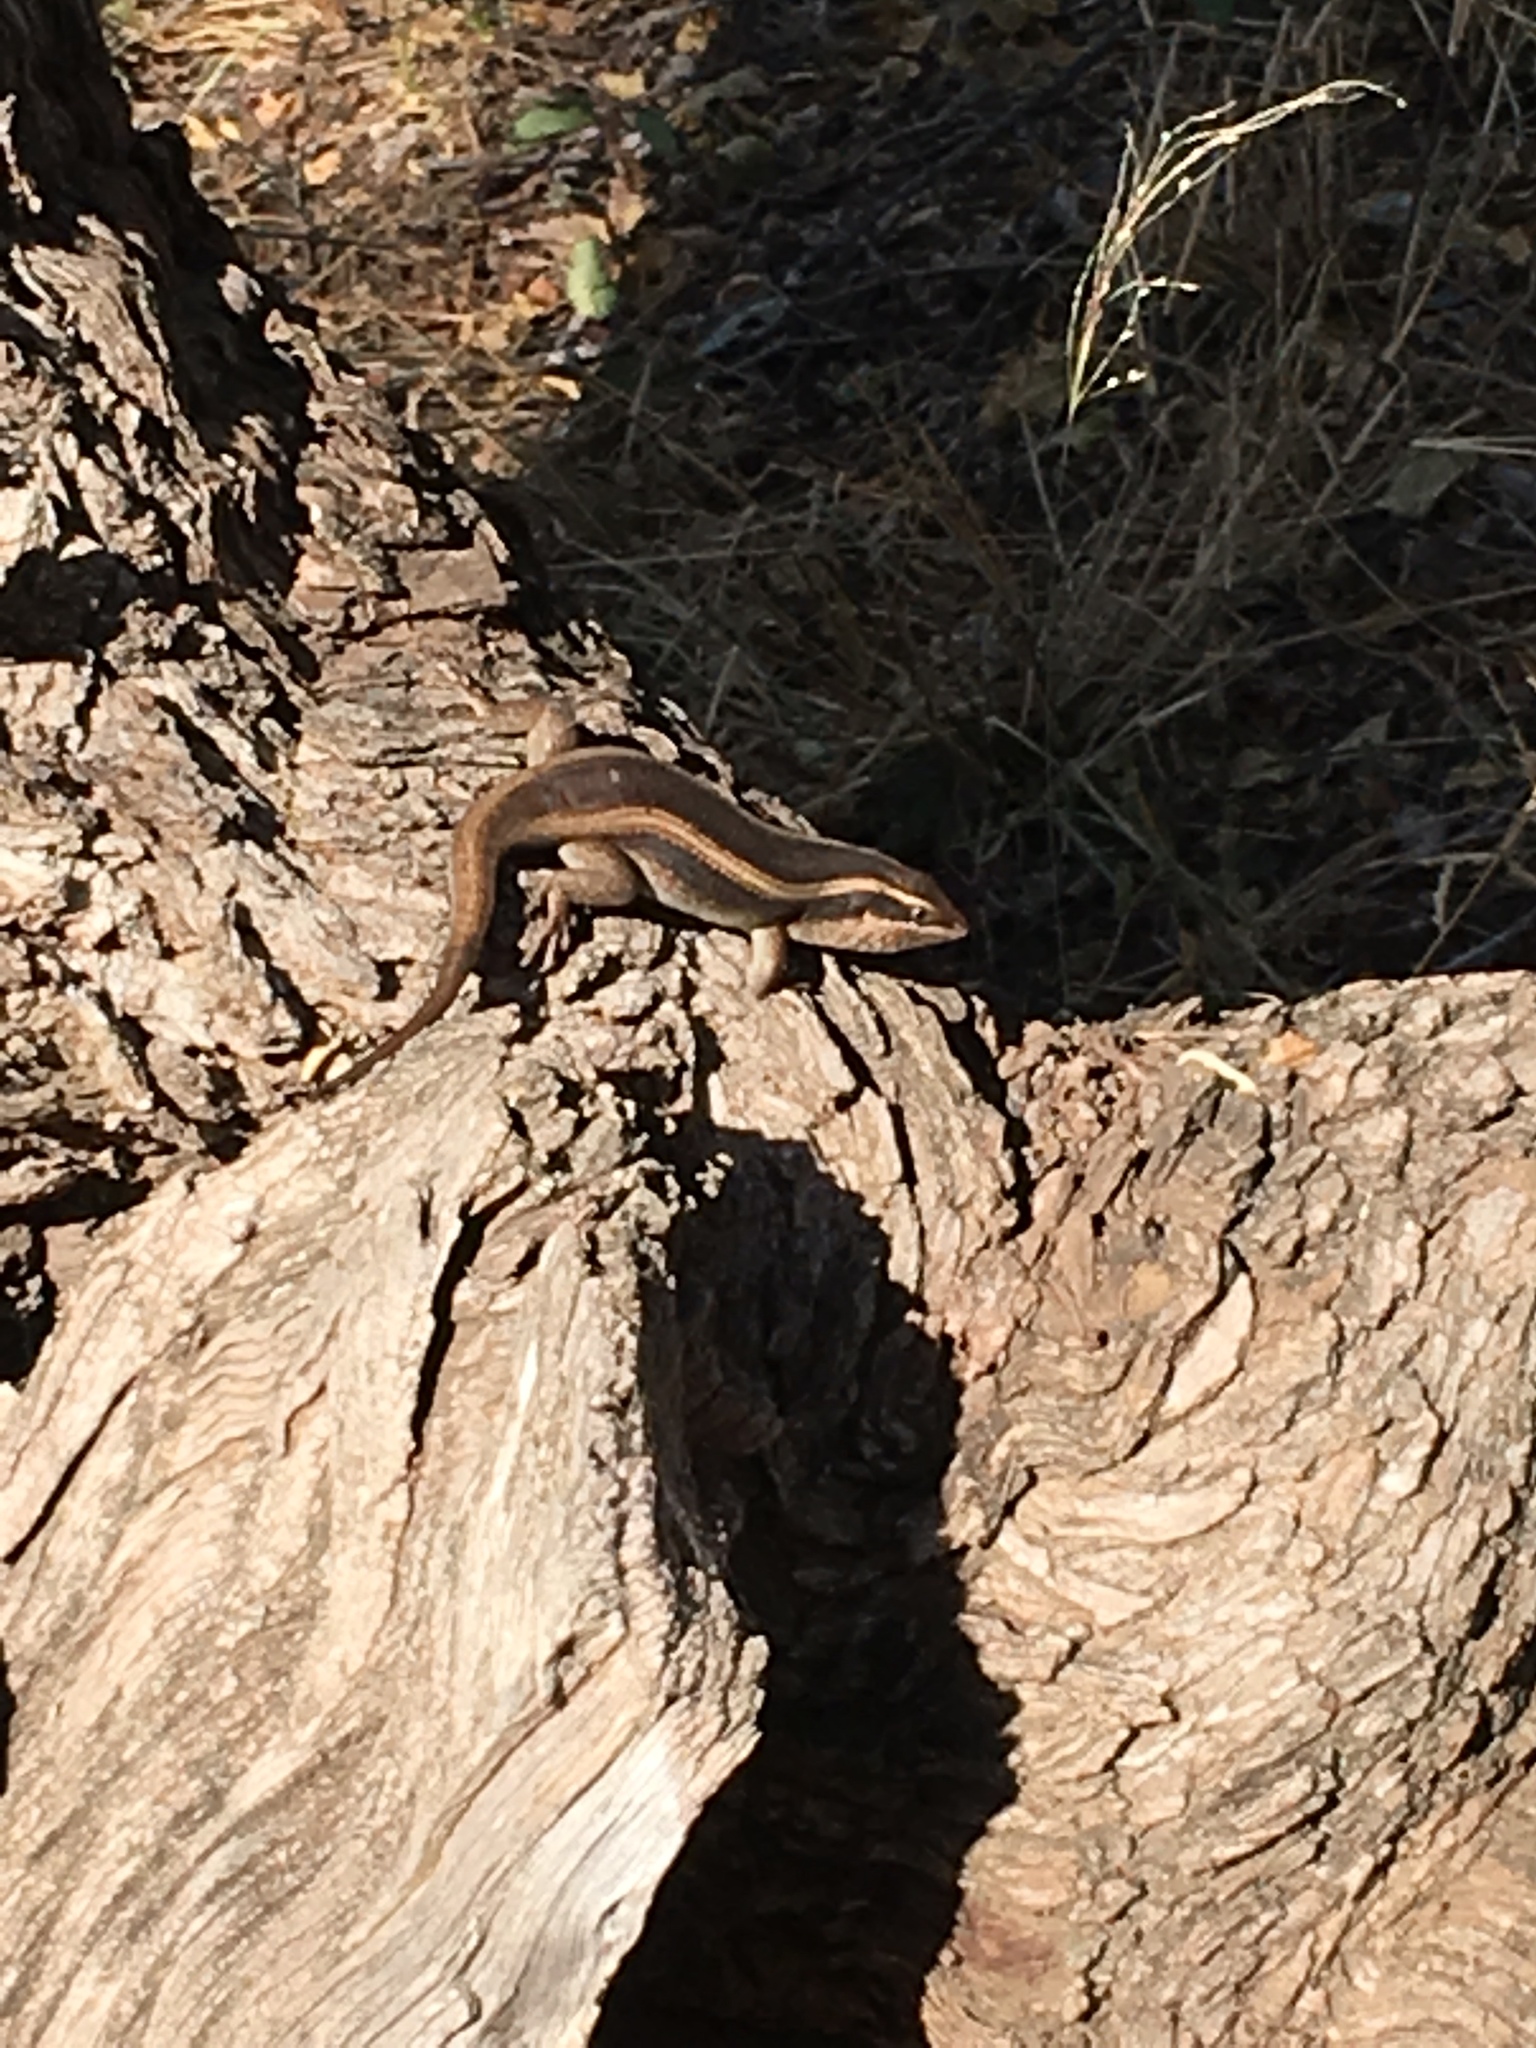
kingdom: Animalia
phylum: Chordata
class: Squamata
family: Scincidae
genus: Trachylepis
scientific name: Trachylepis striata
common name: African striped mabuya
